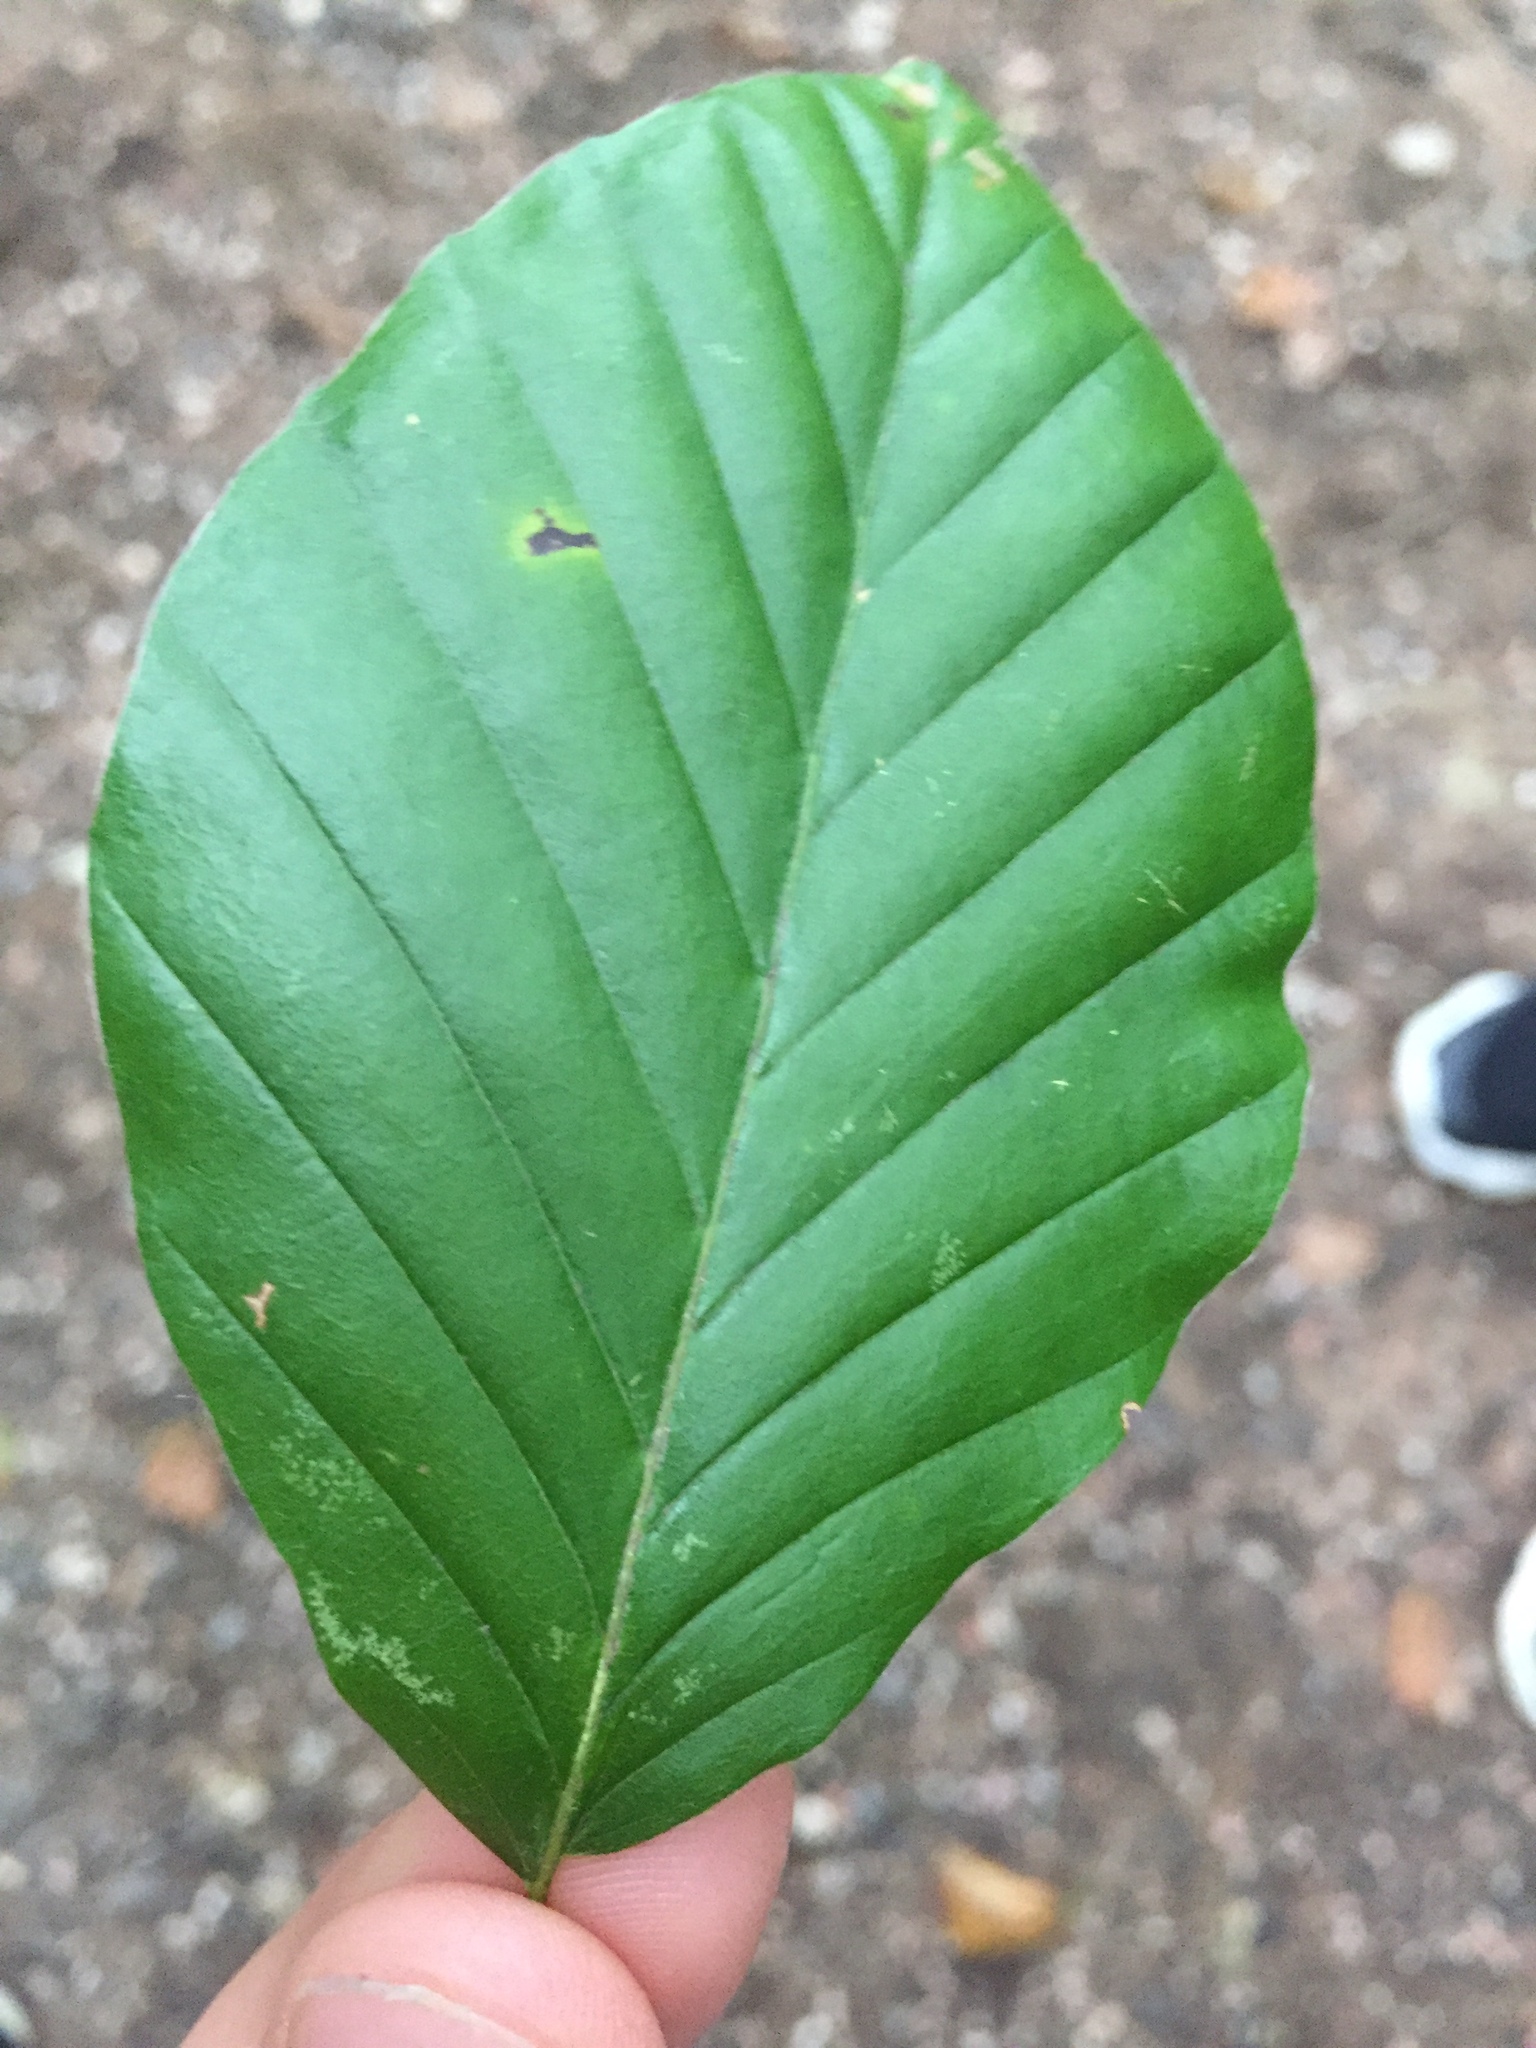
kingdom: Plantae
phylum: Tracheophyta
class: Magnoliopsida
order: Fagales
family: Fagaceae
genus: Fagus
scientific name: Fagus sylvatica
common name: Beech
